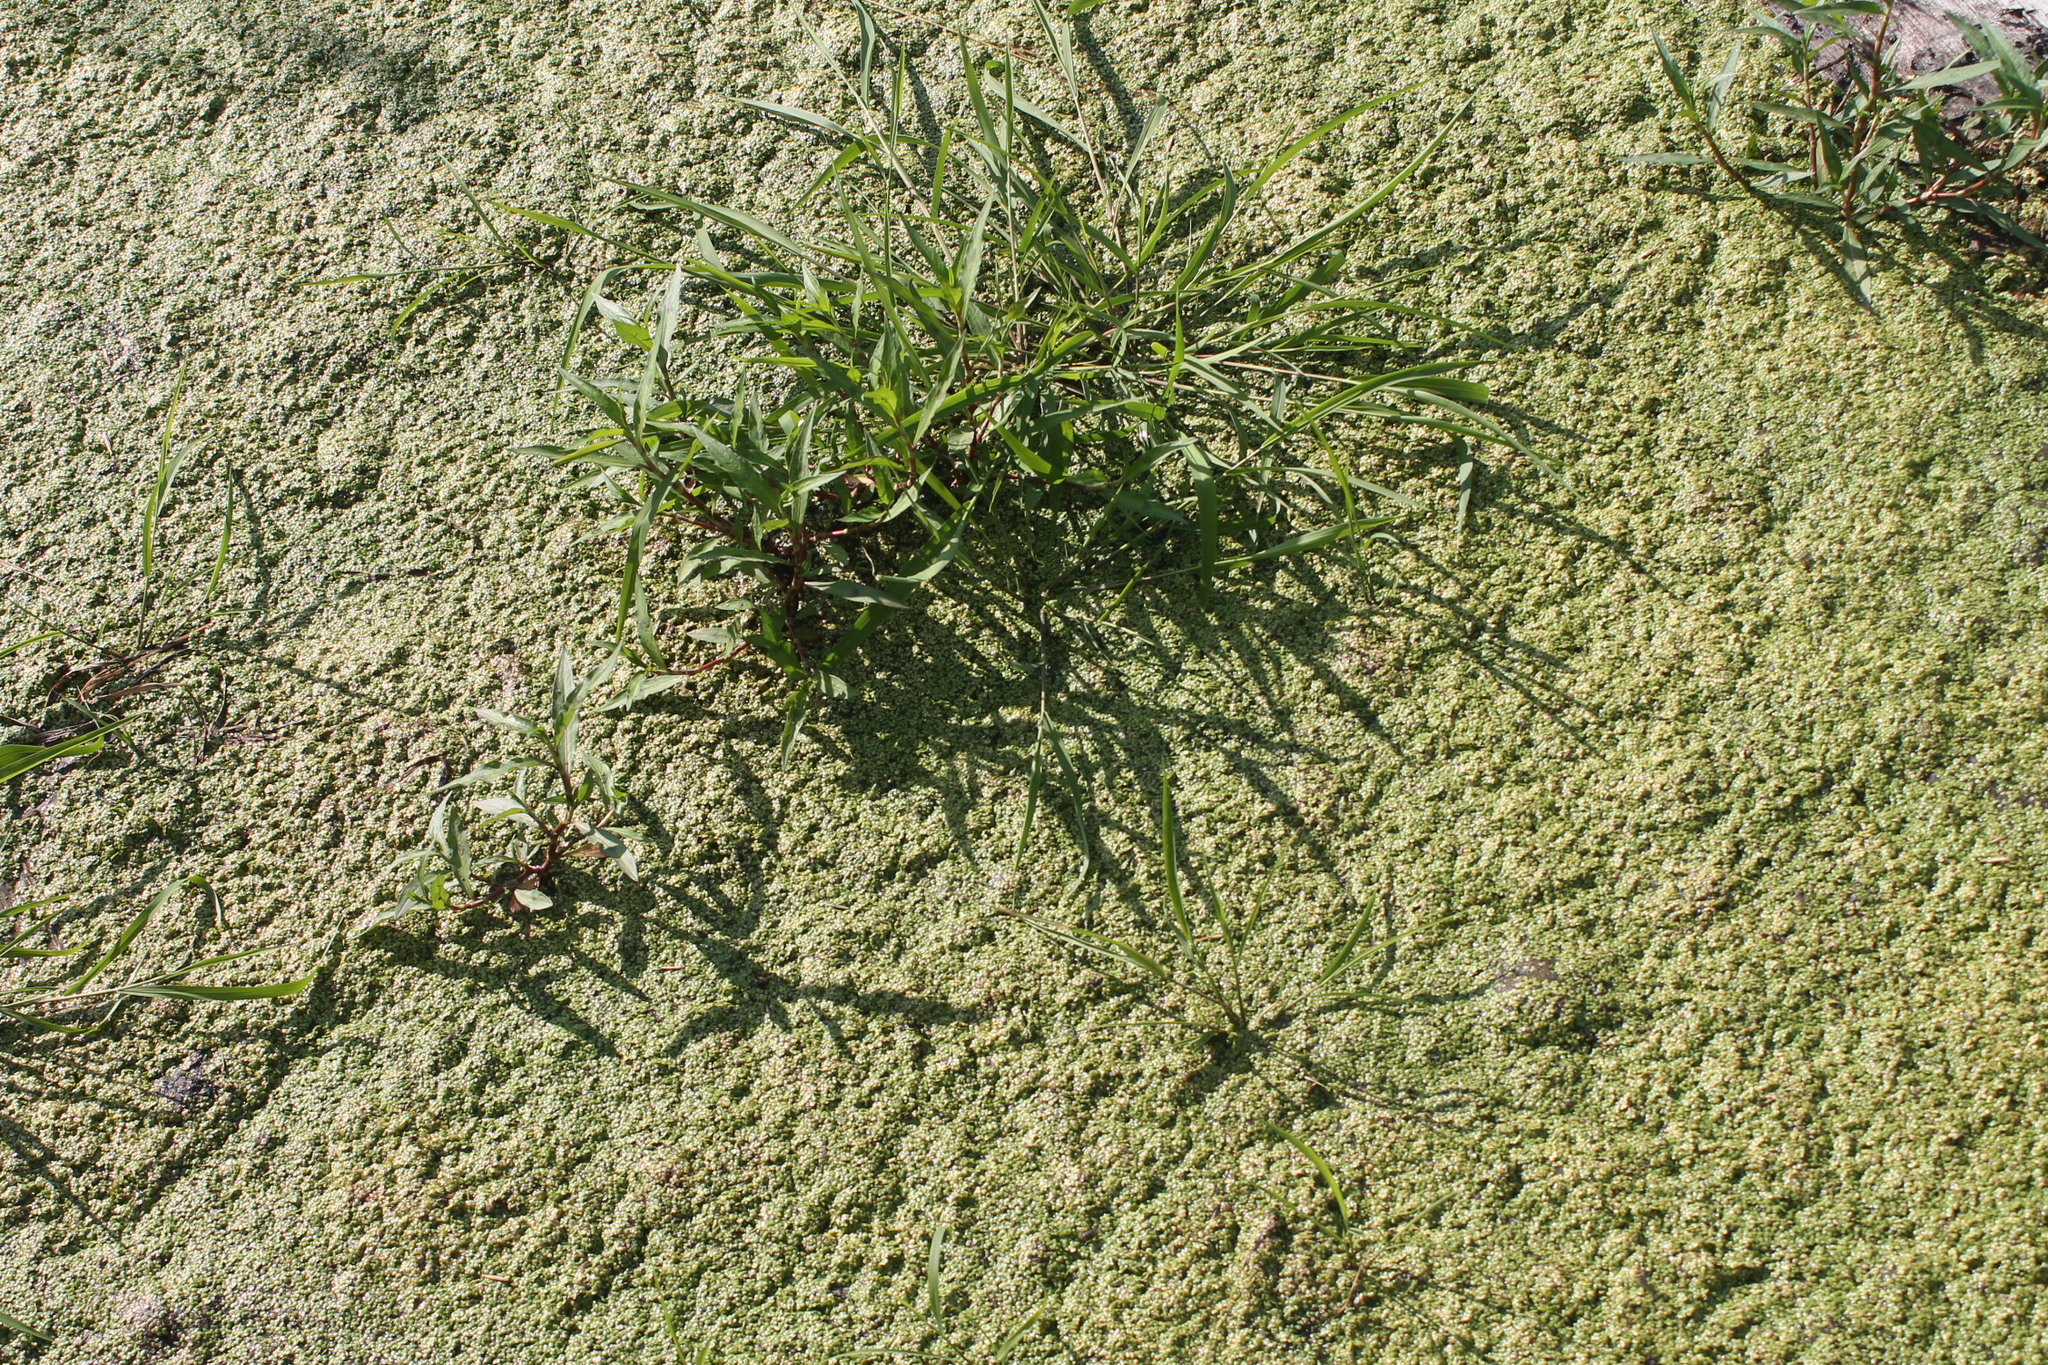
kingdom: Plantae
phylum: Tracheophyta
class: Liliopsida
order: Alismatales
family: Araceae
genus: Lemna
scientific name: Lemna minor
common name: Common duckweed
